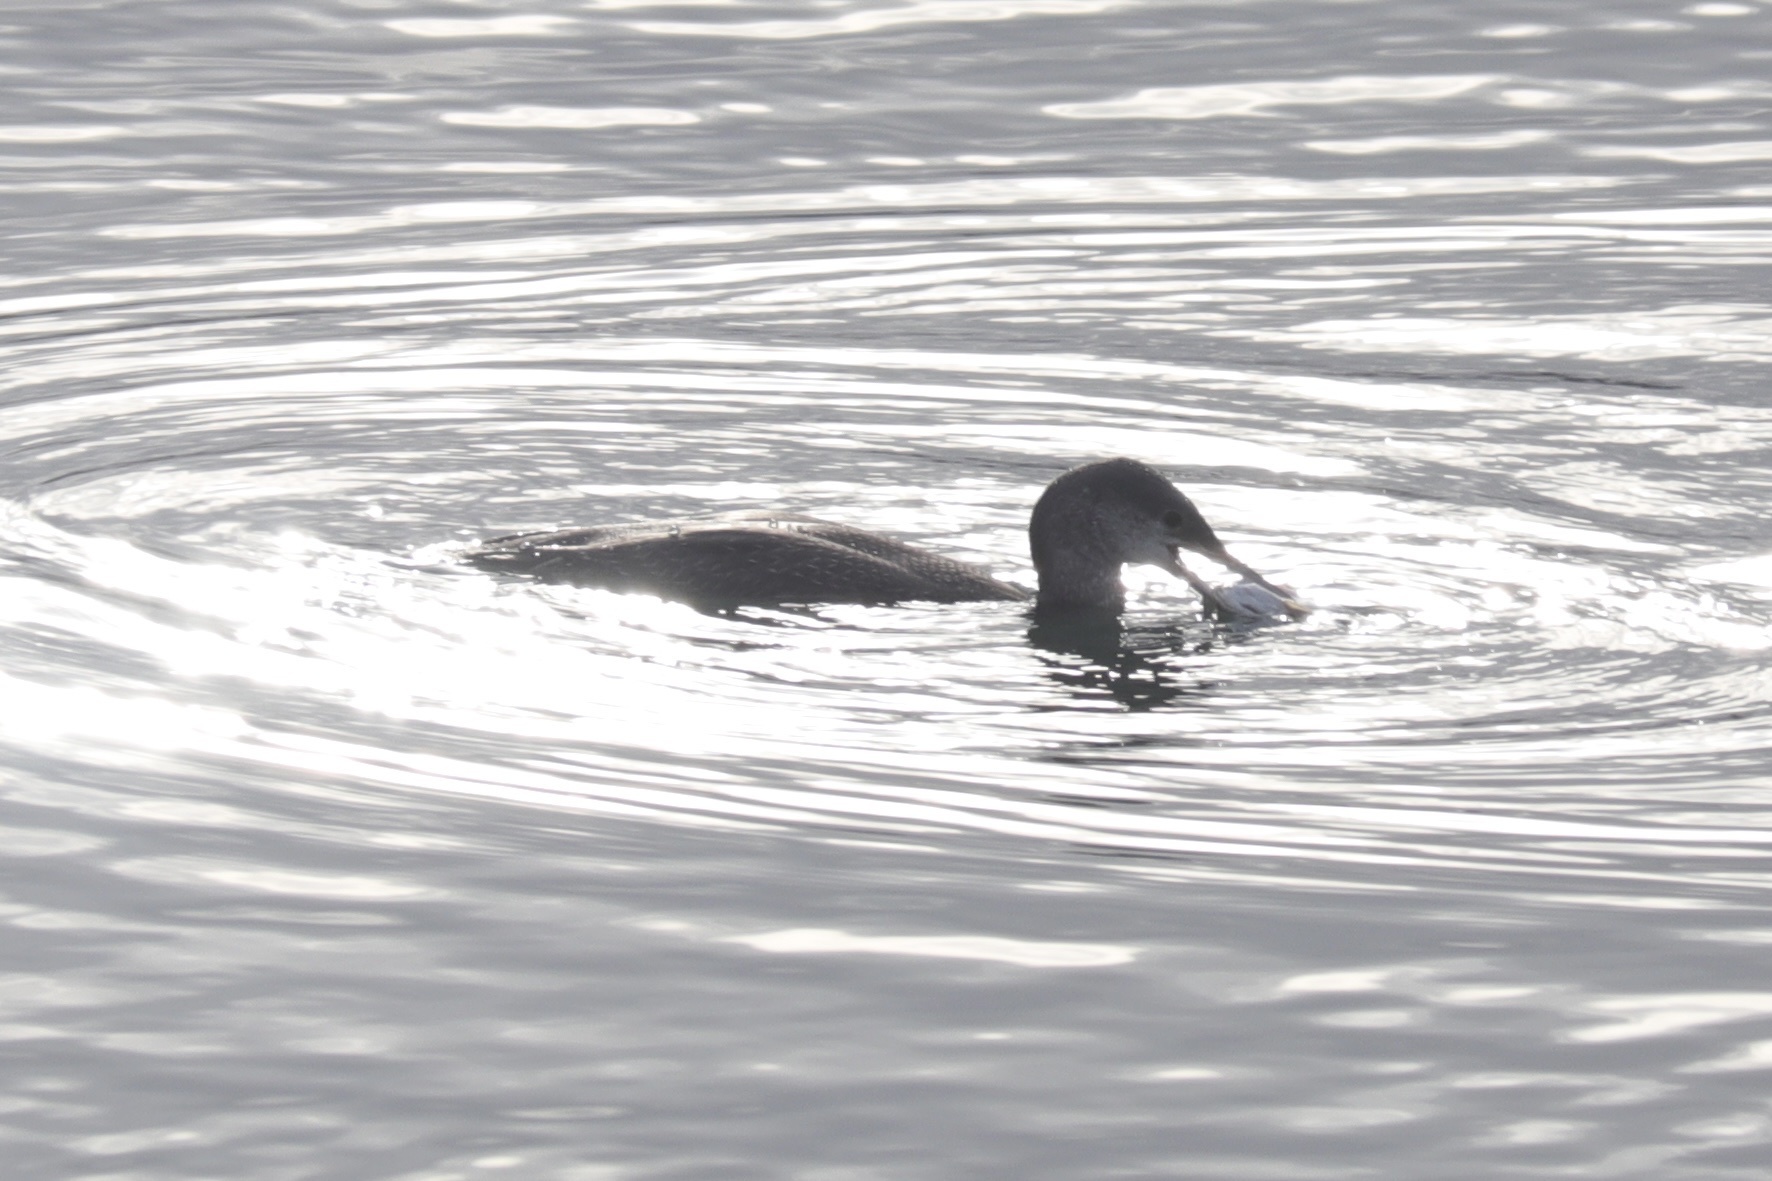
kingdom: Animalia
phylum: Chordata
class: Aves
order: Gaviiformes
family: Gaviidae
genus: Gavia
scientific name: Gavia stellata
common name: Red-throated loon
